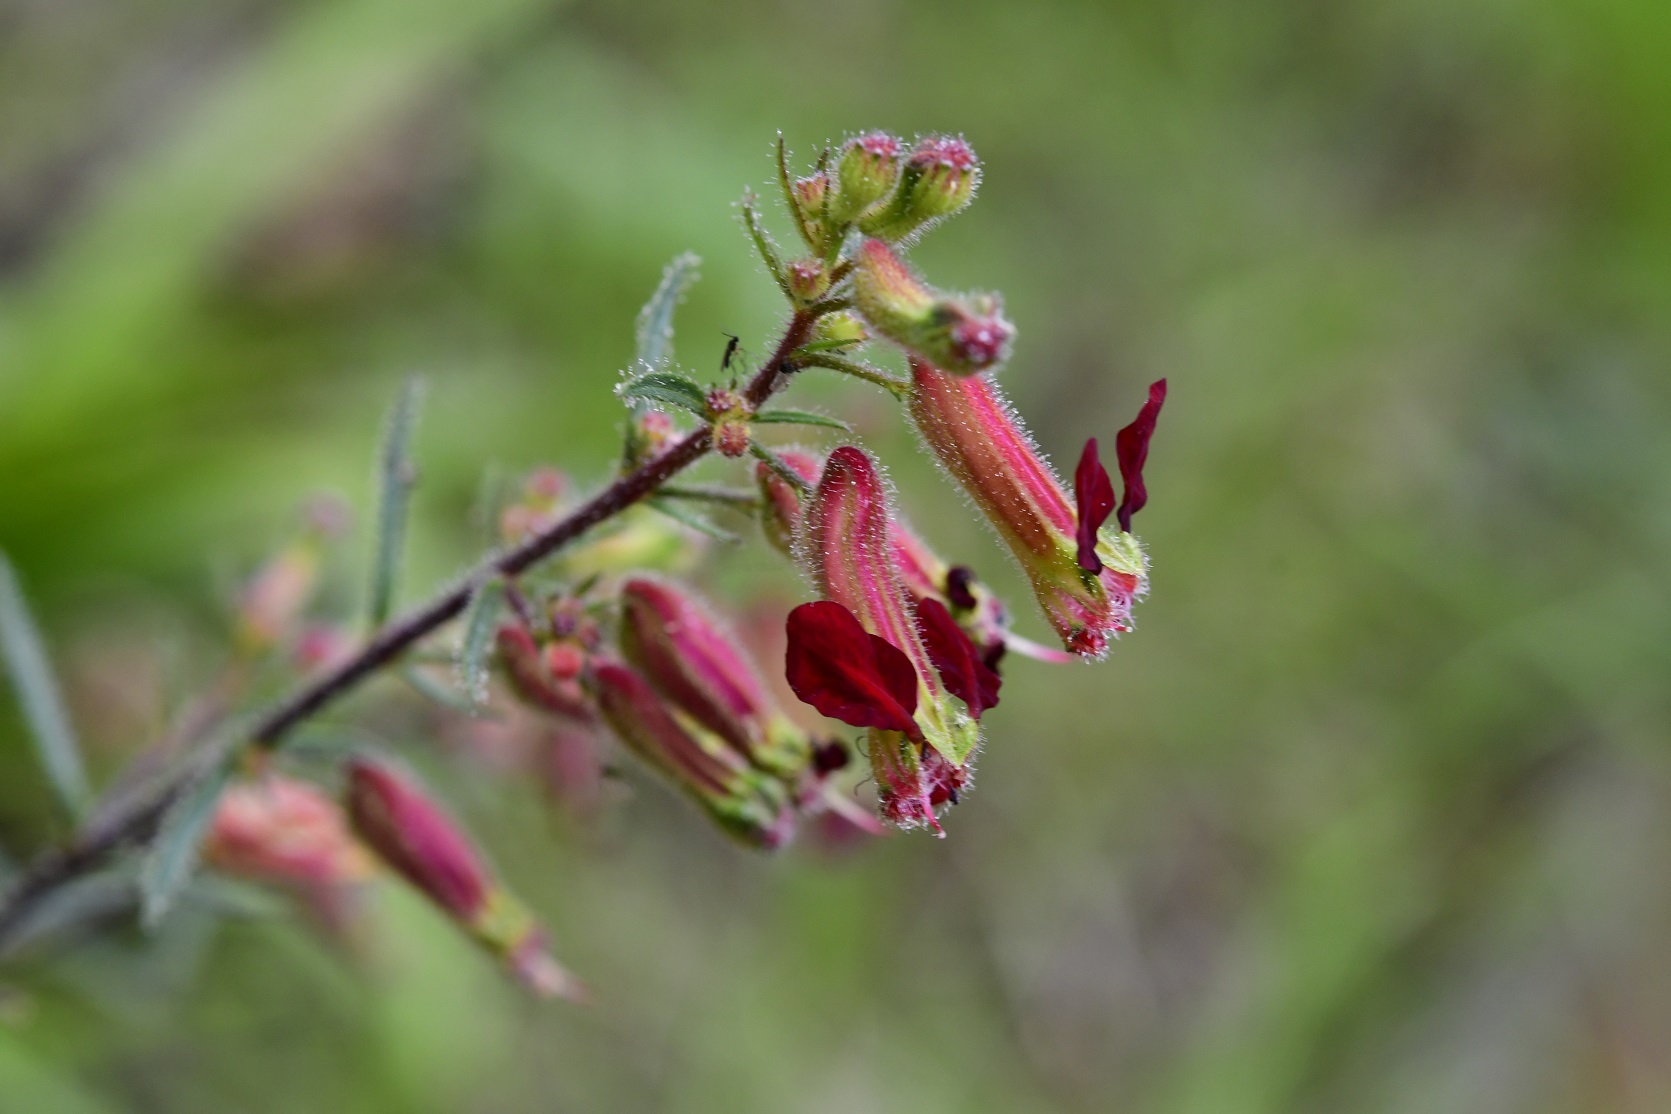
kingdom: Plantae
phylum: Tracheophyta
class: Magnoliopsida
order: Myrtales
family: Lythraceae
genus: Cuphea
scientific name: Cuphea hookeriana
